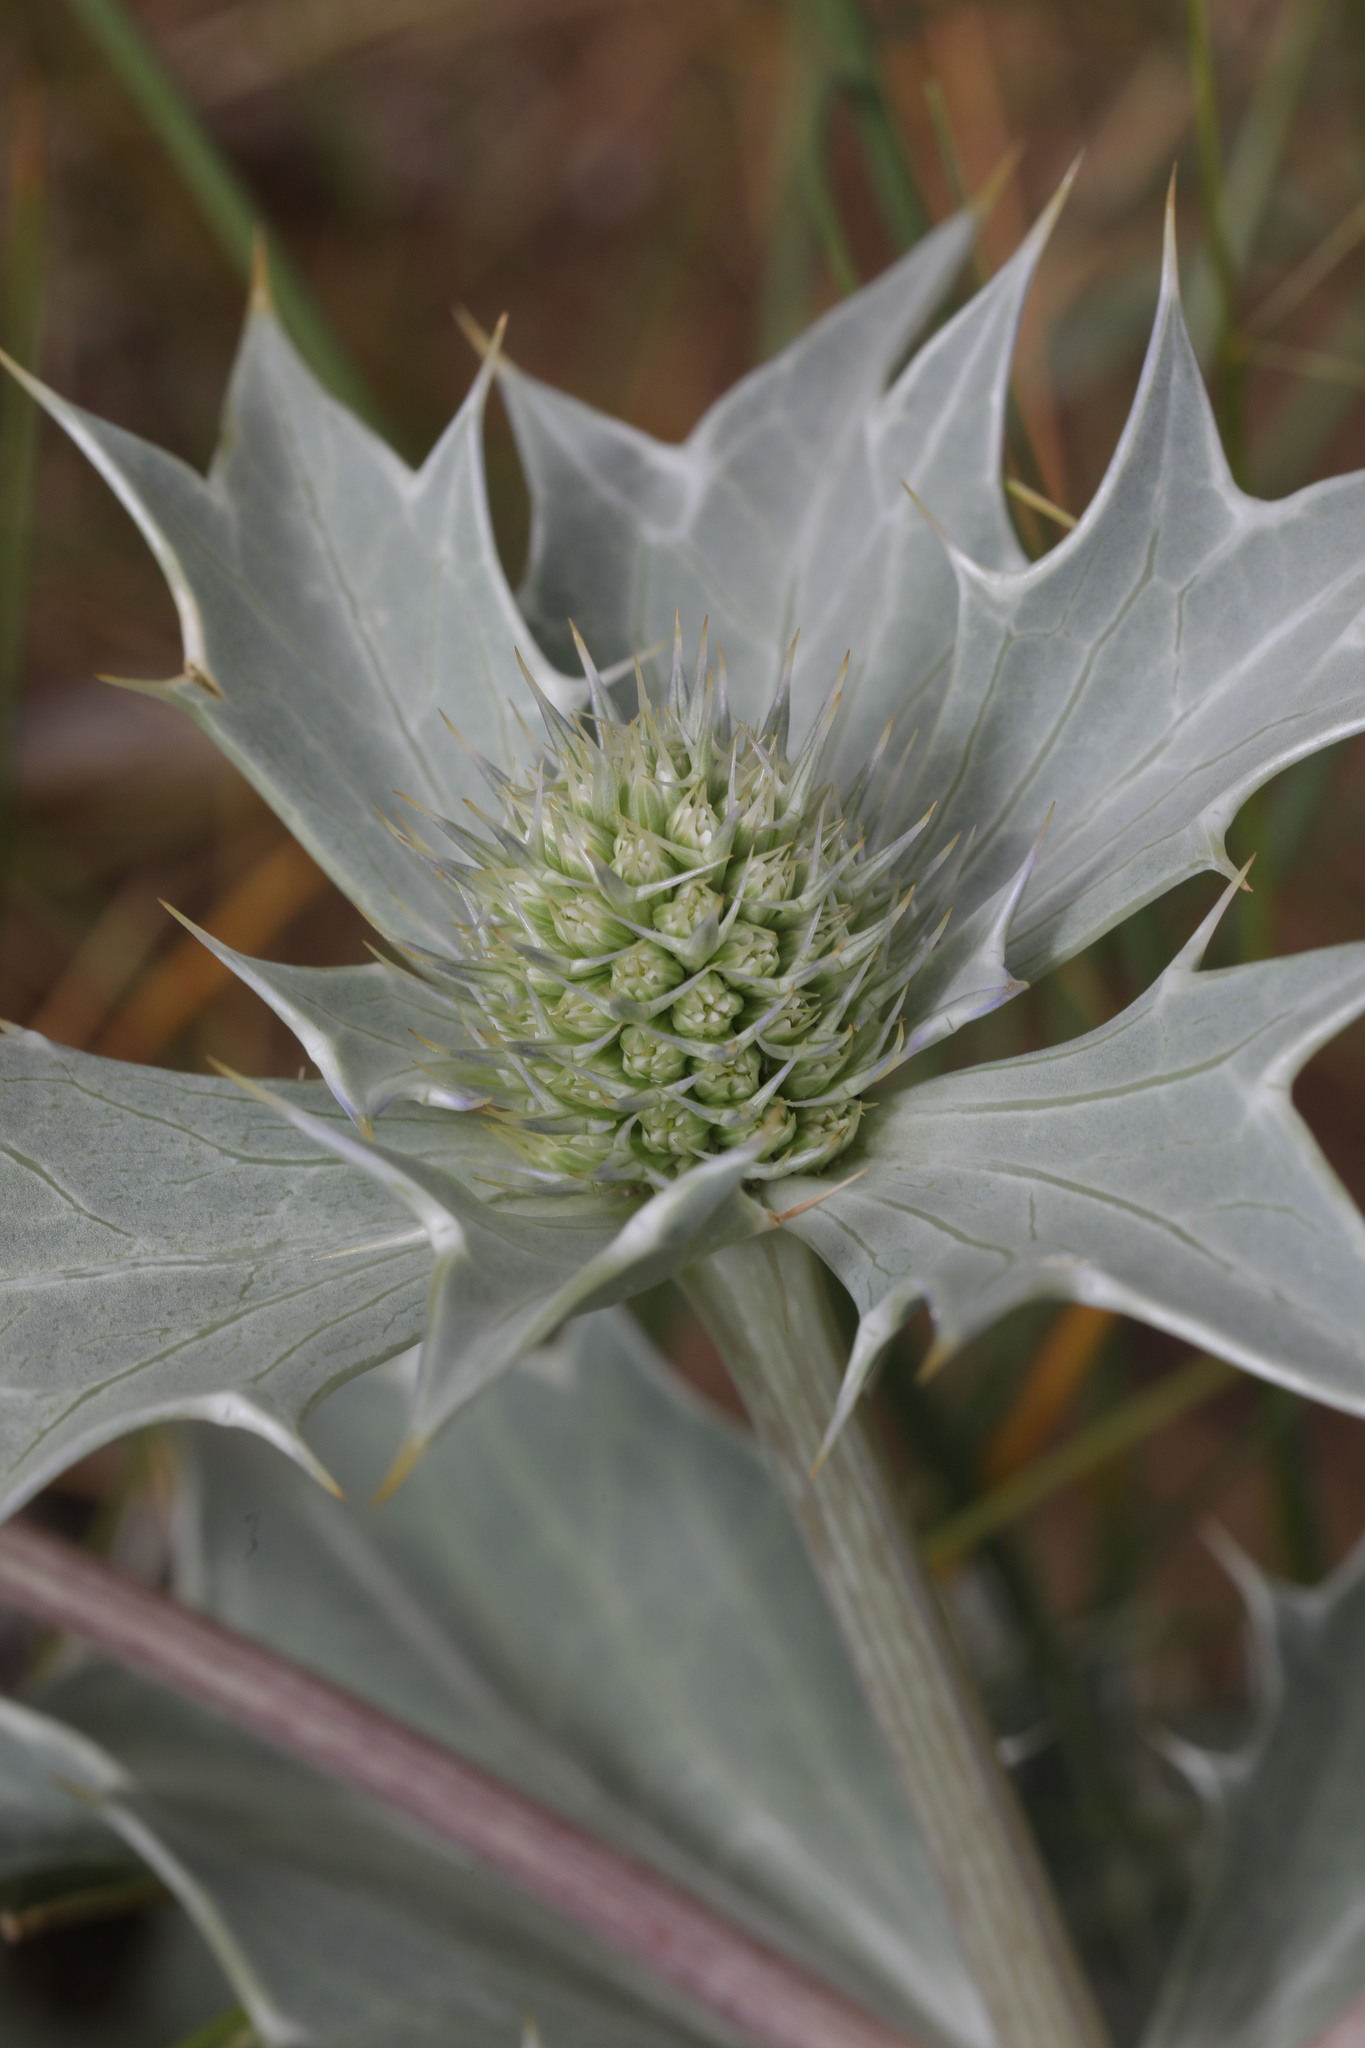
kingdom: Plantae
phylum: Tracheophyta
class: Magnoliopsida
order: Apiales
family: Apiaceae
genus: Eryngium
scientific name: Eryngium maritimum
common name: Sea-holly
